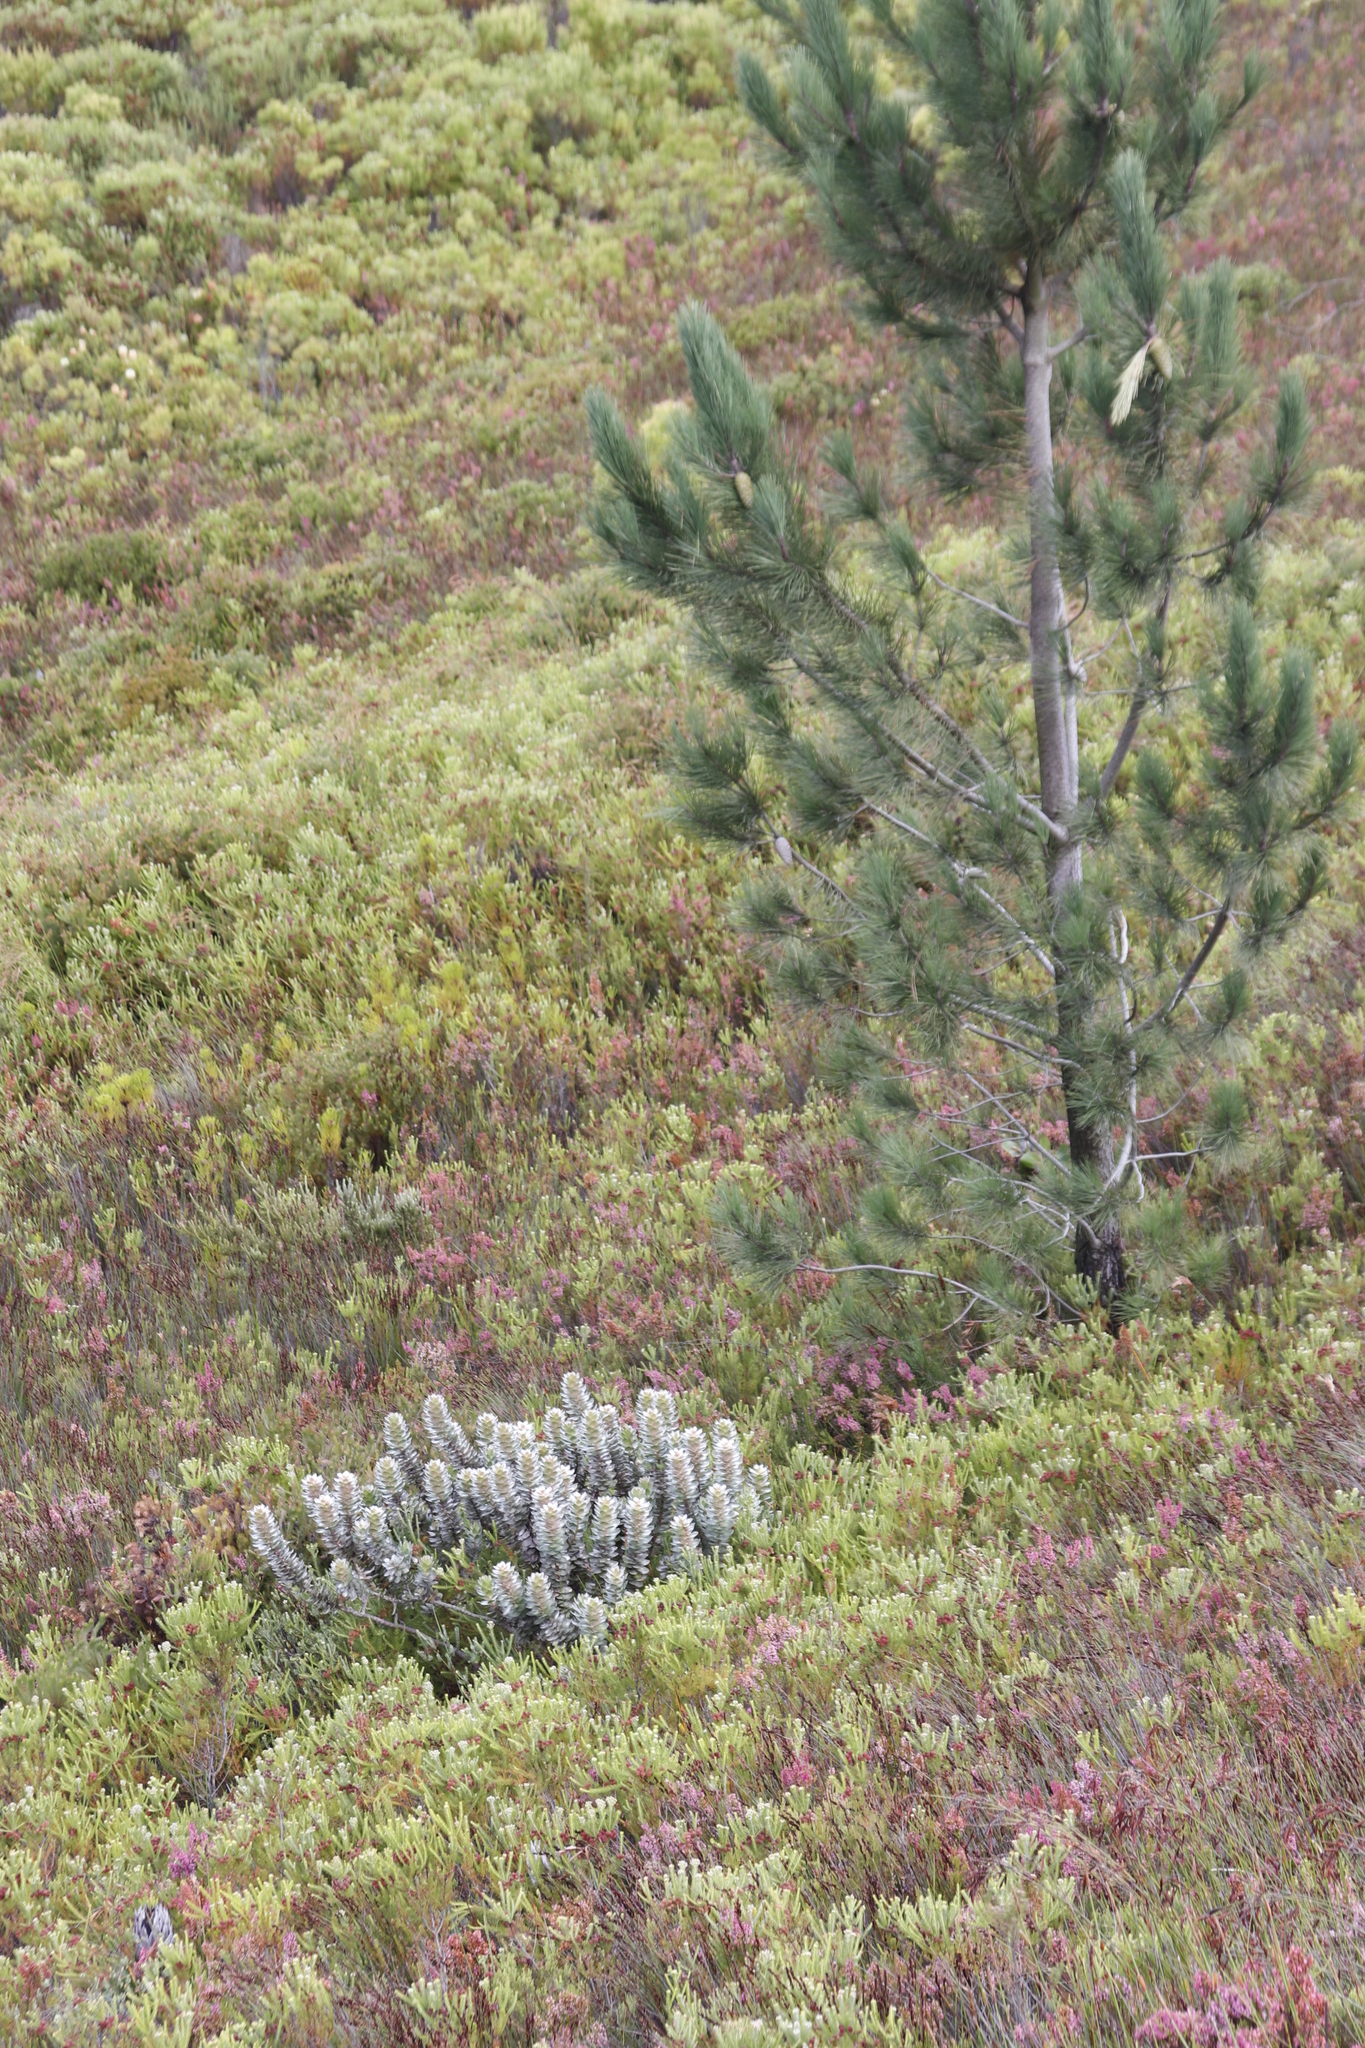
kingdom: Plantae
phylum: Tracheophyta
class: Magnoliopsida
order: Proteales
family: Proteaceae
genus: Mimetes
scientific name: Mimetes argenteus
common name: Silver pagoda
